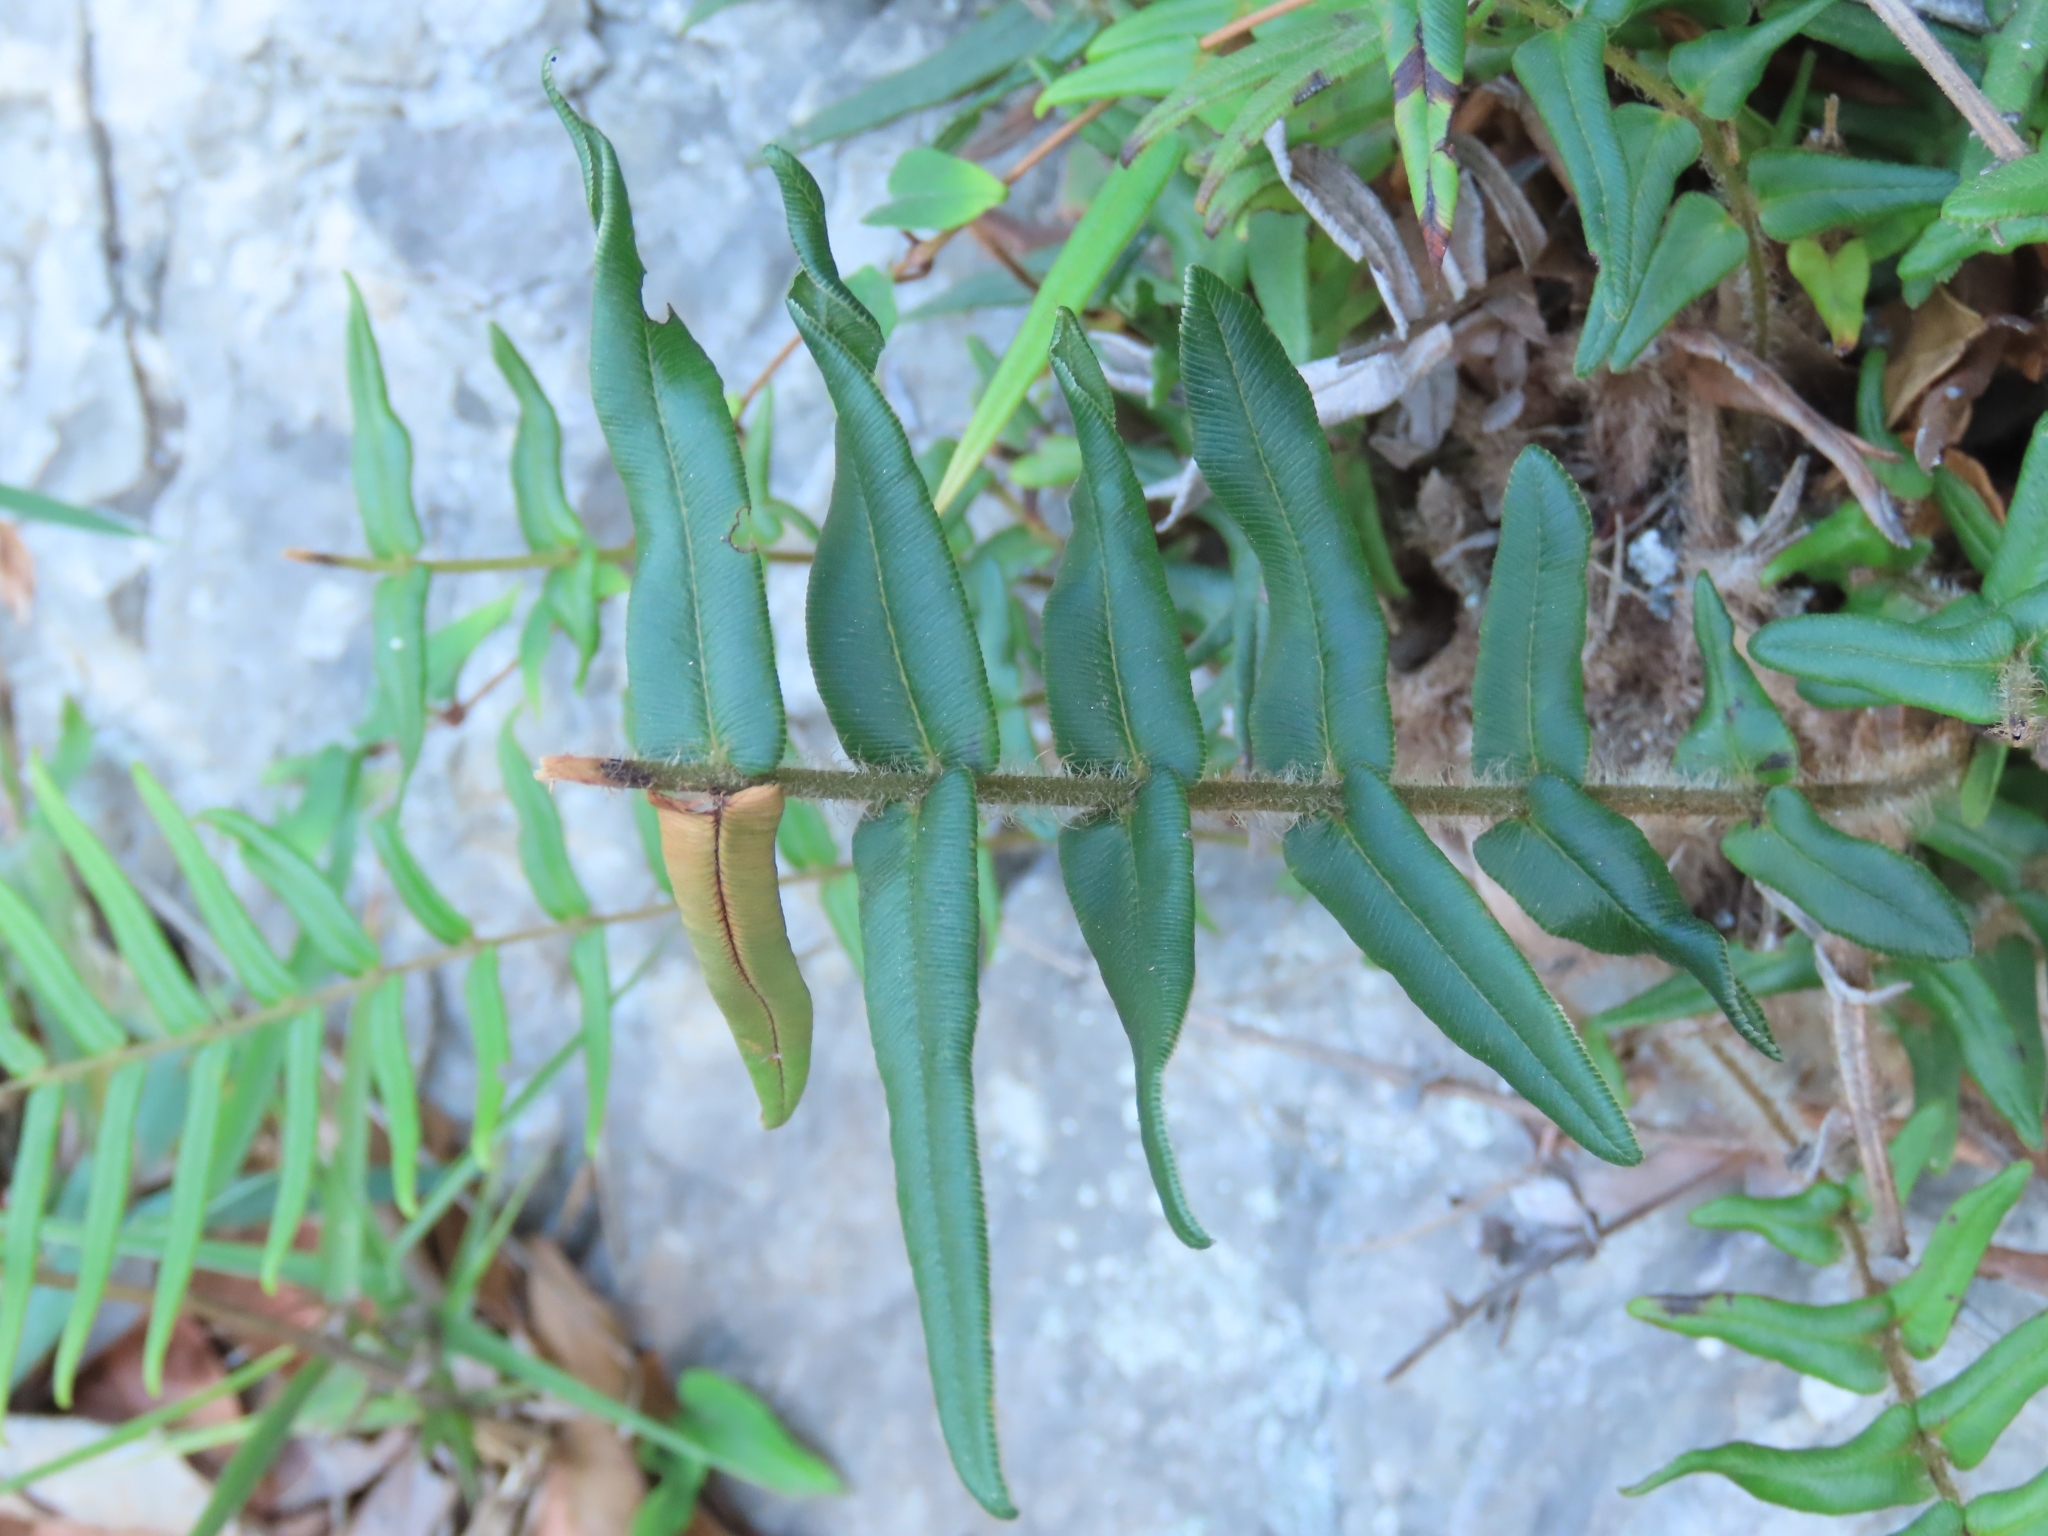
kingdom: Plantae
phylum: Tracheophyta
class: Polypodiopsida
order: Polypodiales
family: Pteridaceae
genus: Pteris
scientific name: Pteris vittata
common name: Ladder brake
